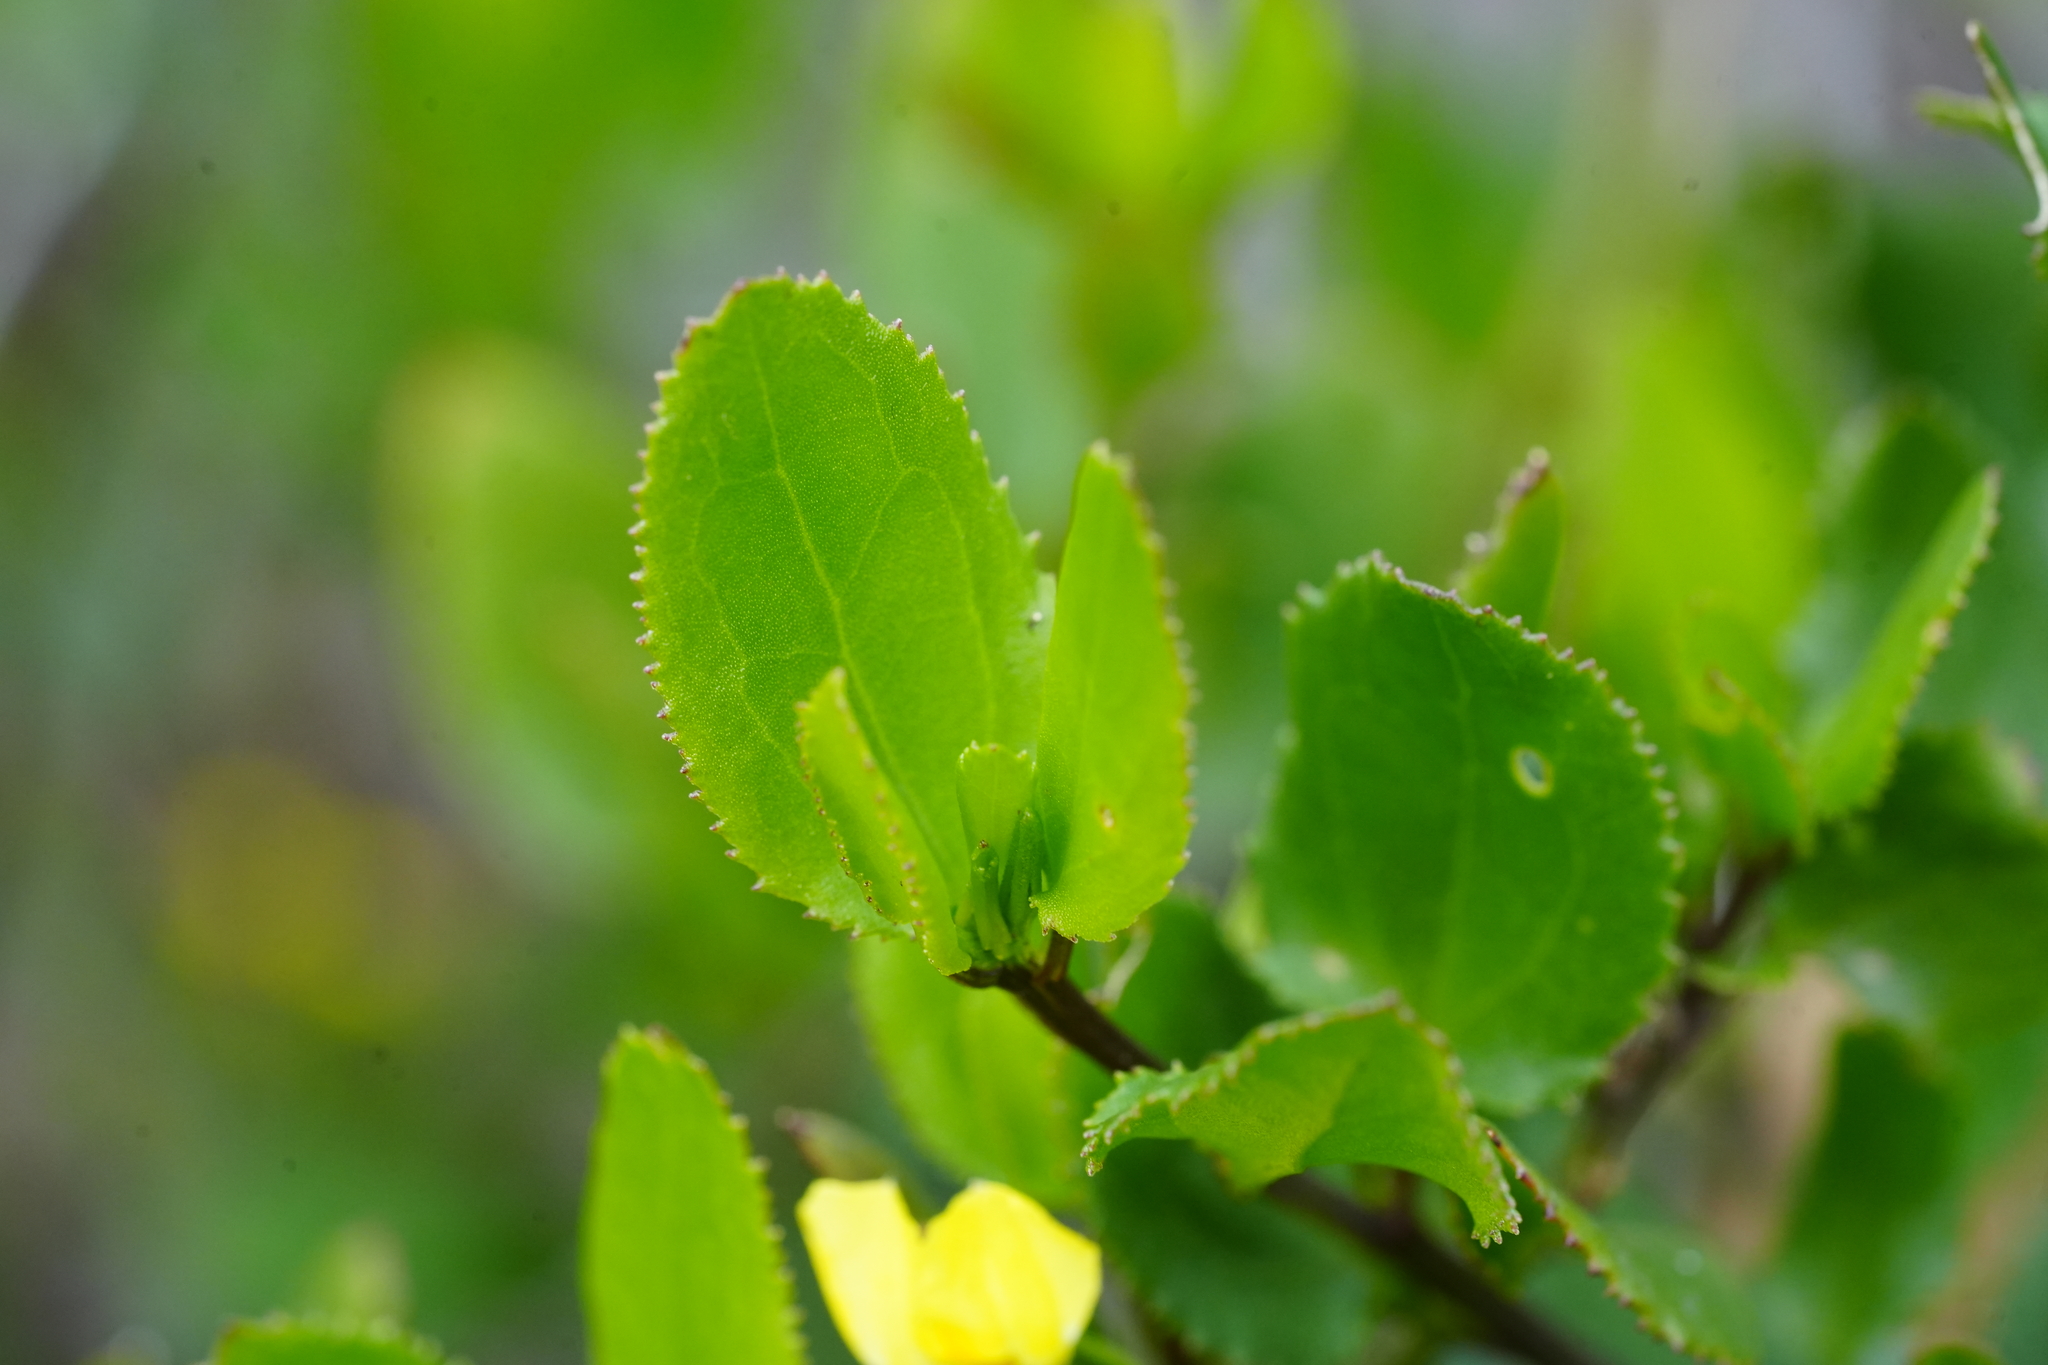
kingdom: Plantae
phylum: Tracheophyta
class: Magnoliopsida
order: Asterales
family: Goodeniaceae
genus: Goodenia
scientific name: Goodenia ovata
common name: Hop goodenia
